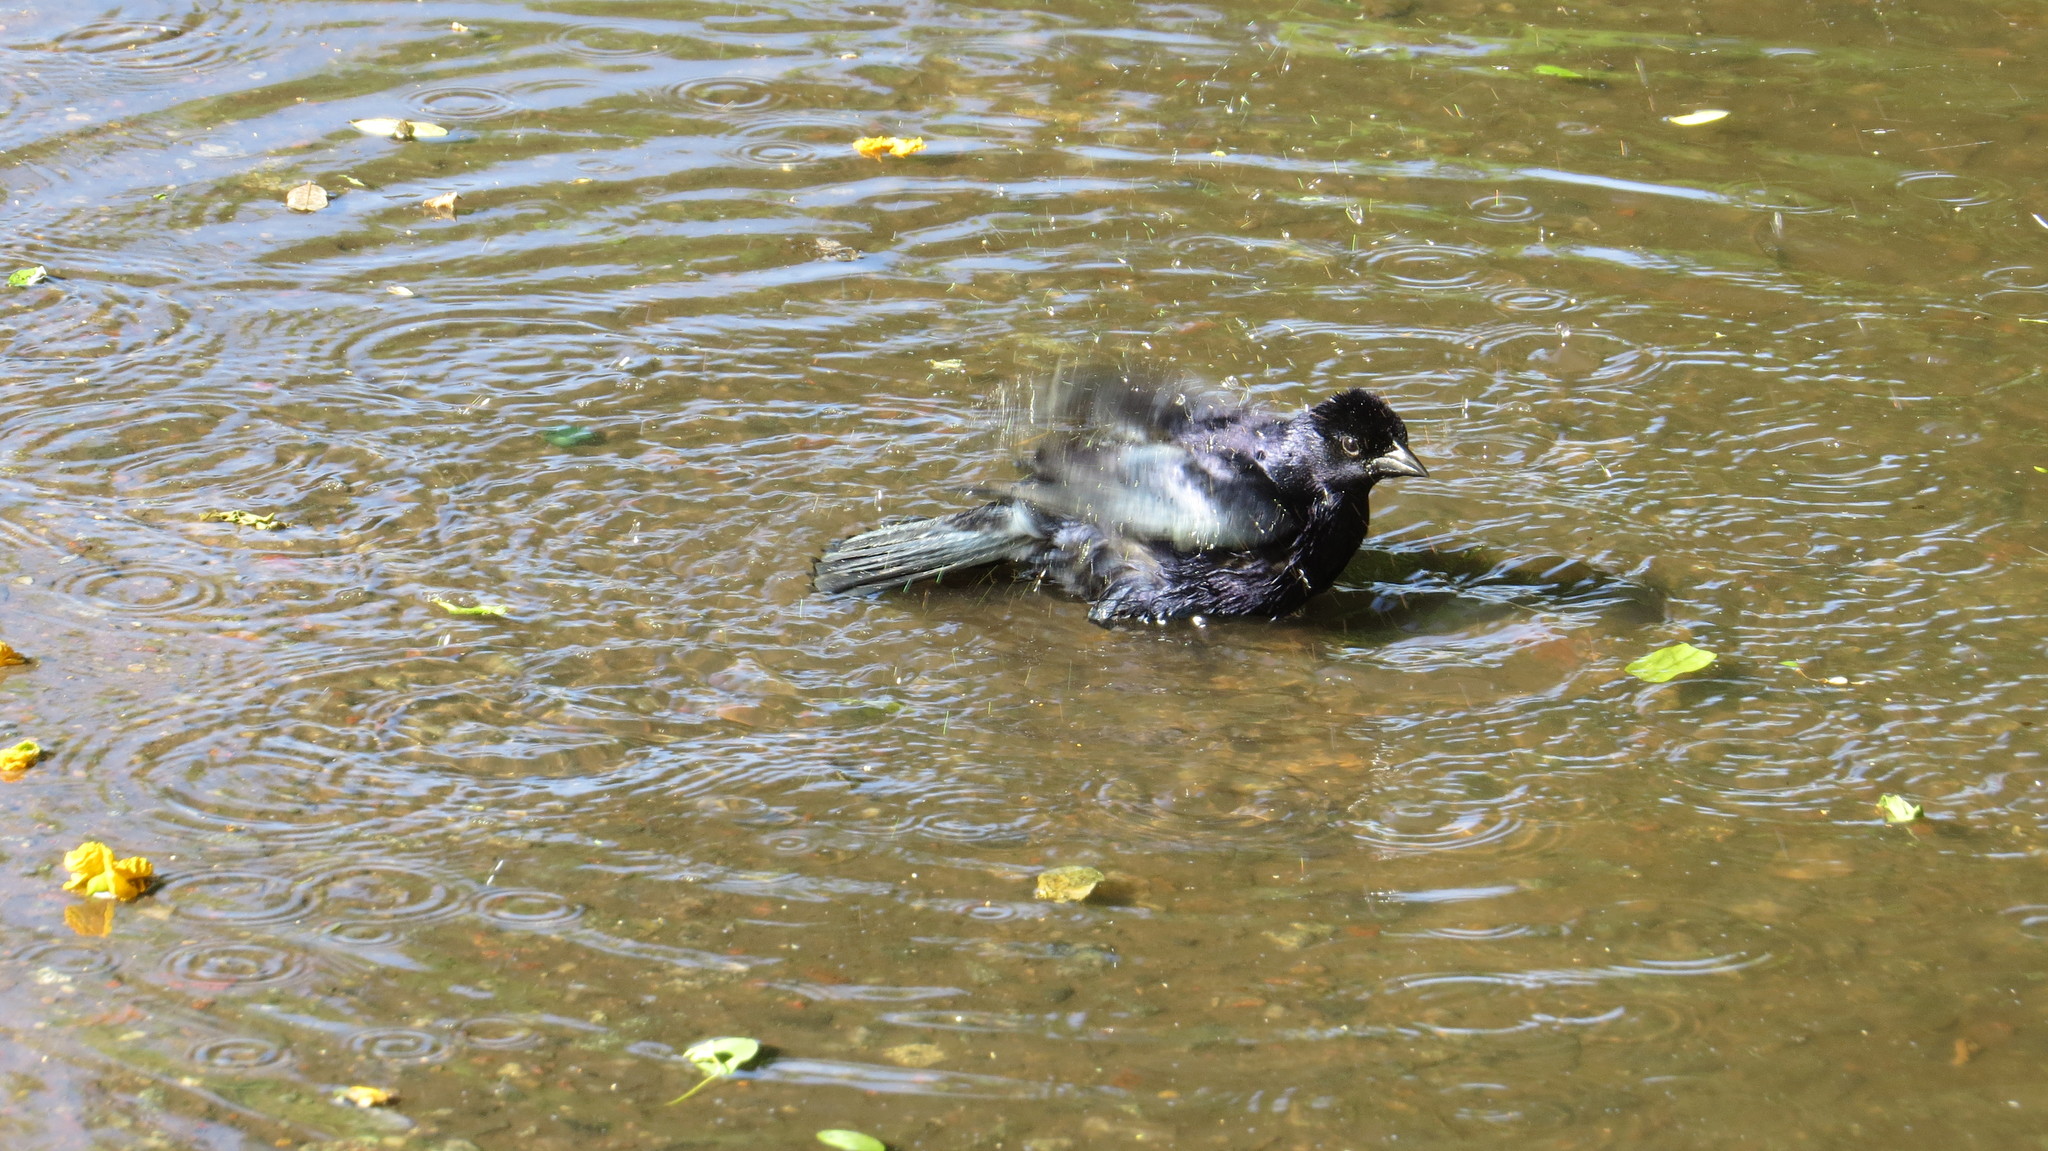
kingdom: Animalia
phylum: Chordata
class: Aves
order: Passeriformes
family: Icteridae
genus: Molothrus
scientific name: Molothrus bonariensis
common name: Shiny cowbird
